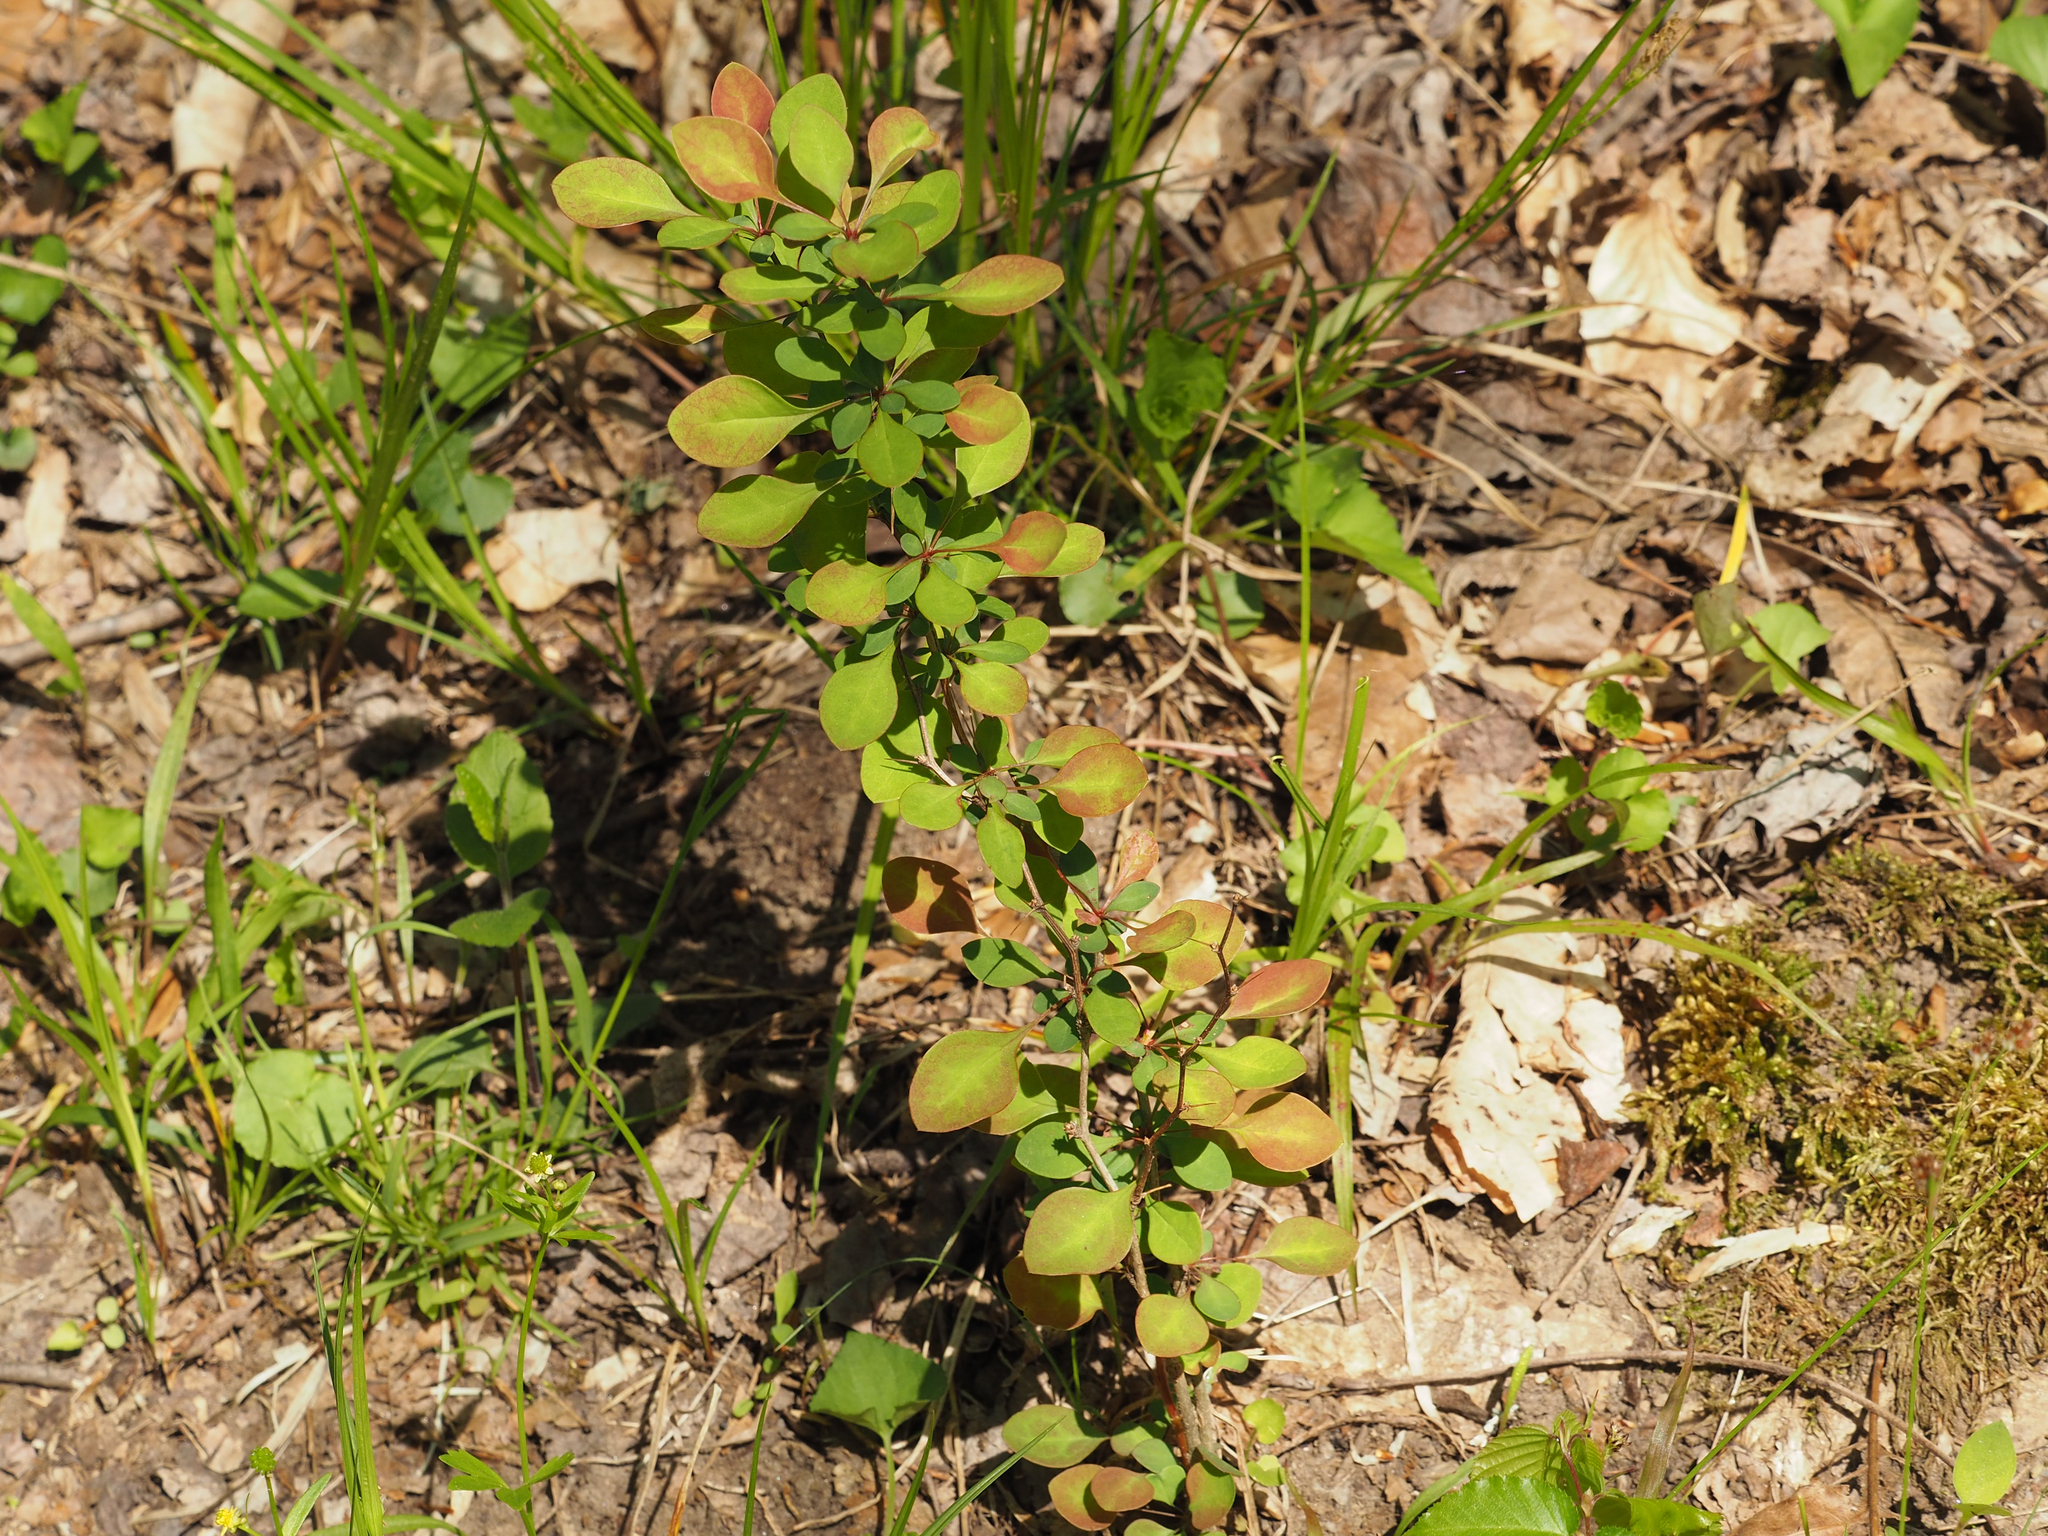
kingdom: Plantae
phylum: Tracheophyta
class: Magnoliopsida
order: Ranunculales
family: Berberidaceae
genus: Berberis
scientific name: Berberis thunbergii
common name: Japanese barberry
